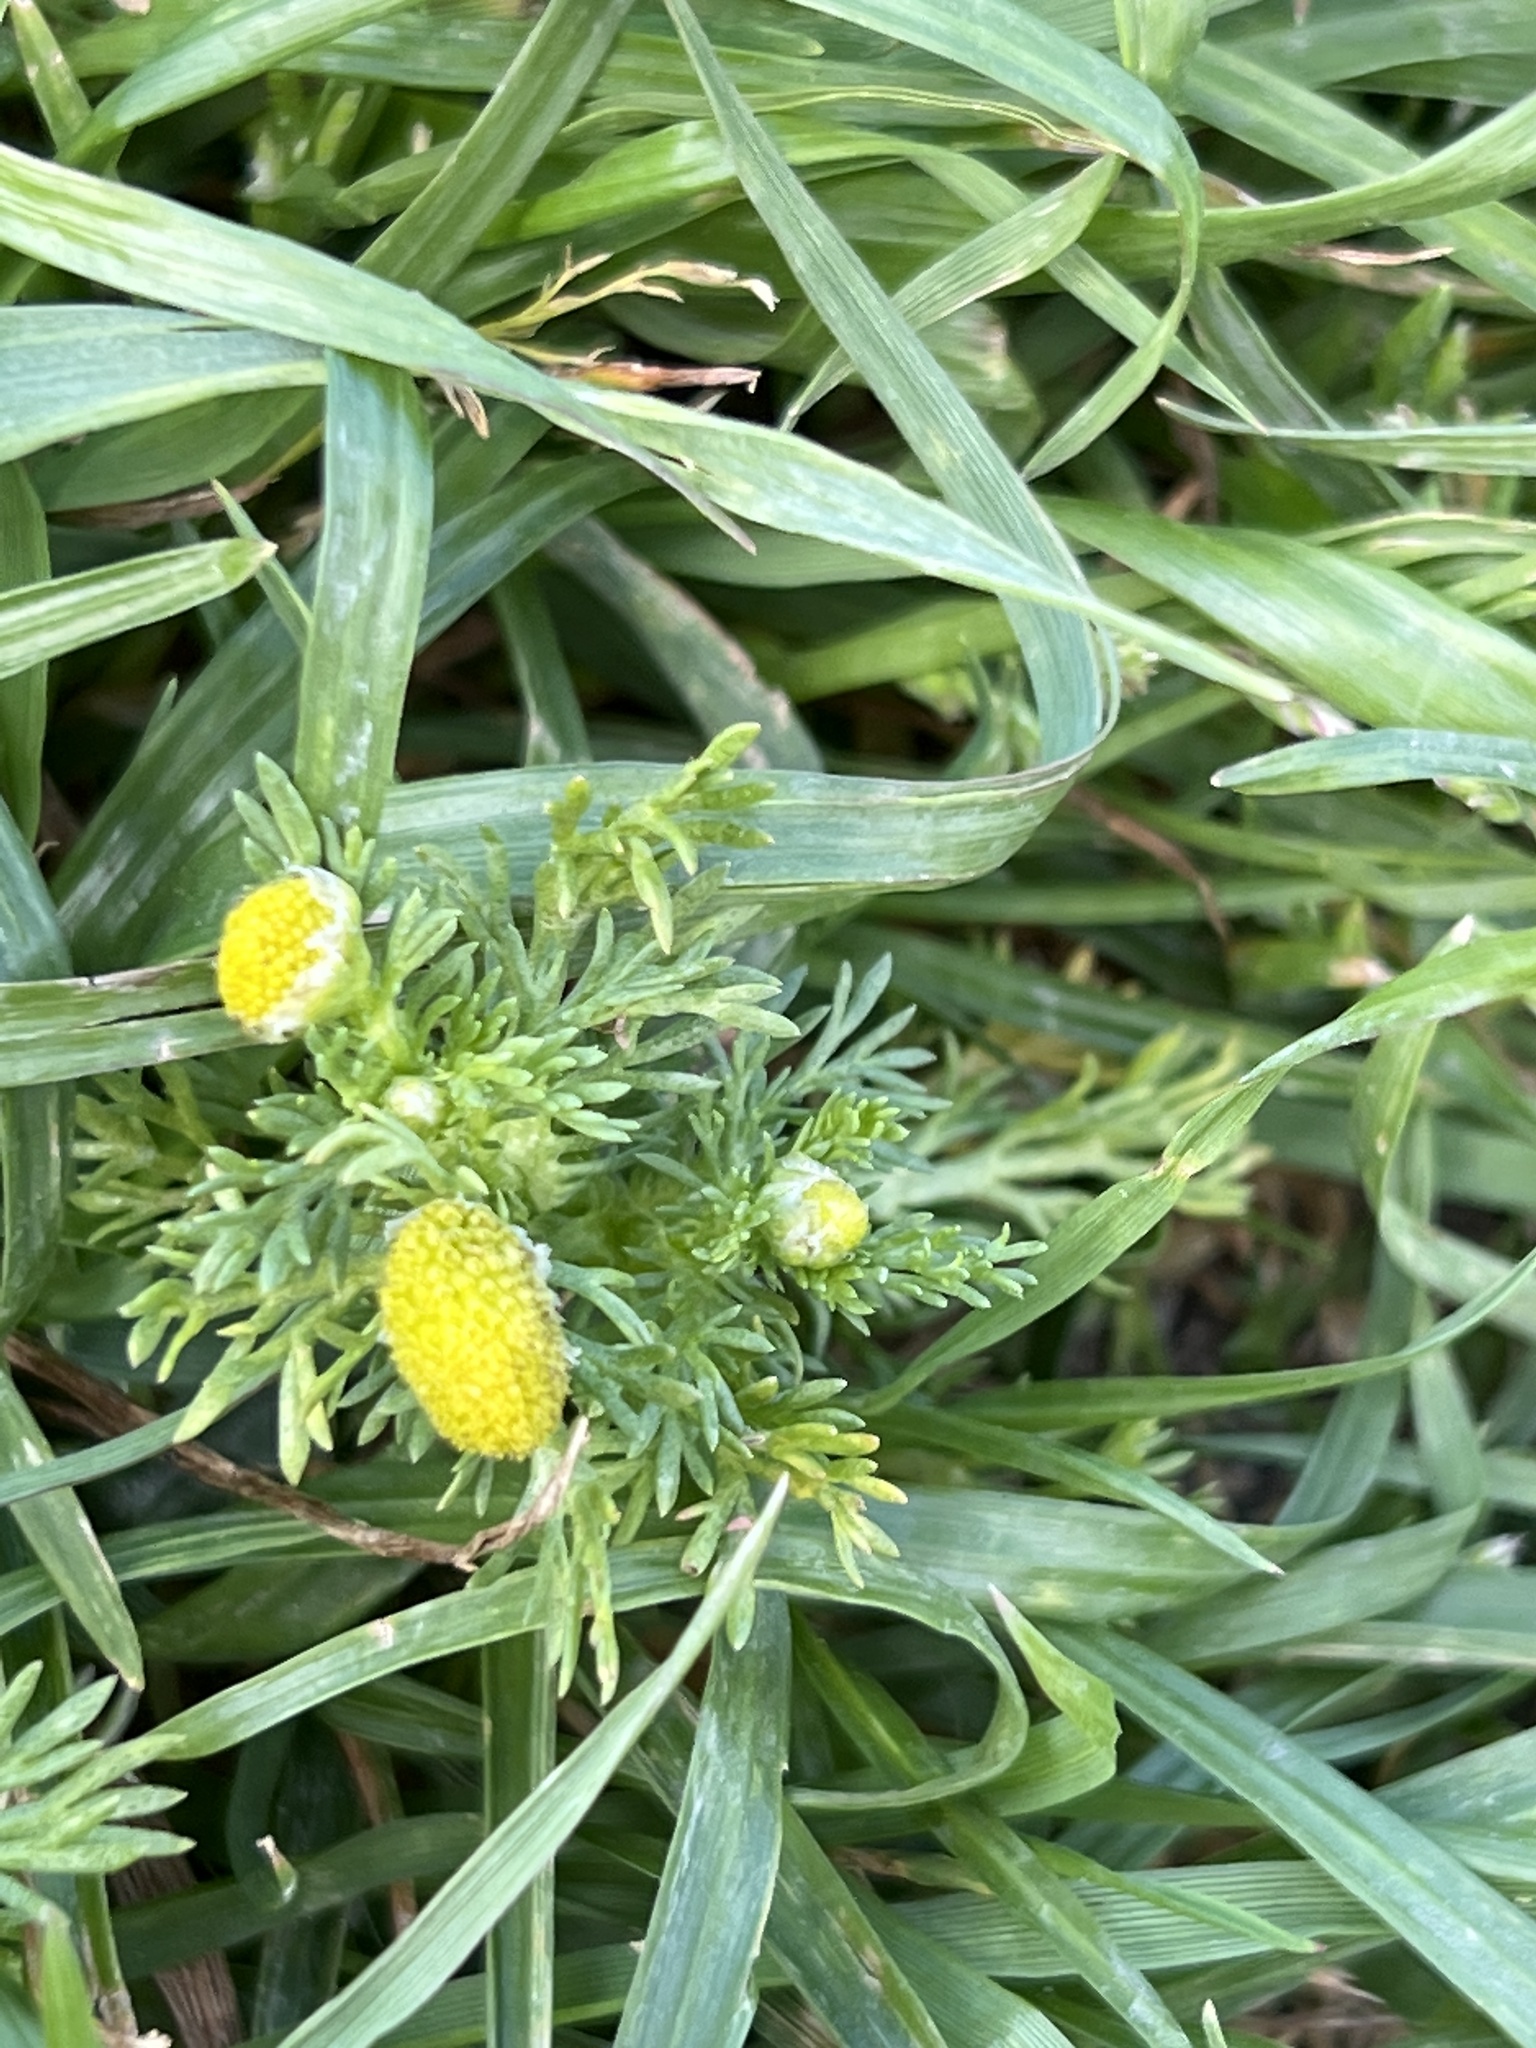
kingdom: Plantae
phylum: Tracheophyta
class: Magnoliopsida
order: Asterales
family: Asteraceae
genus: Matricaria
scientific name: Matricaria discoidea
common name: Disc mayweed
